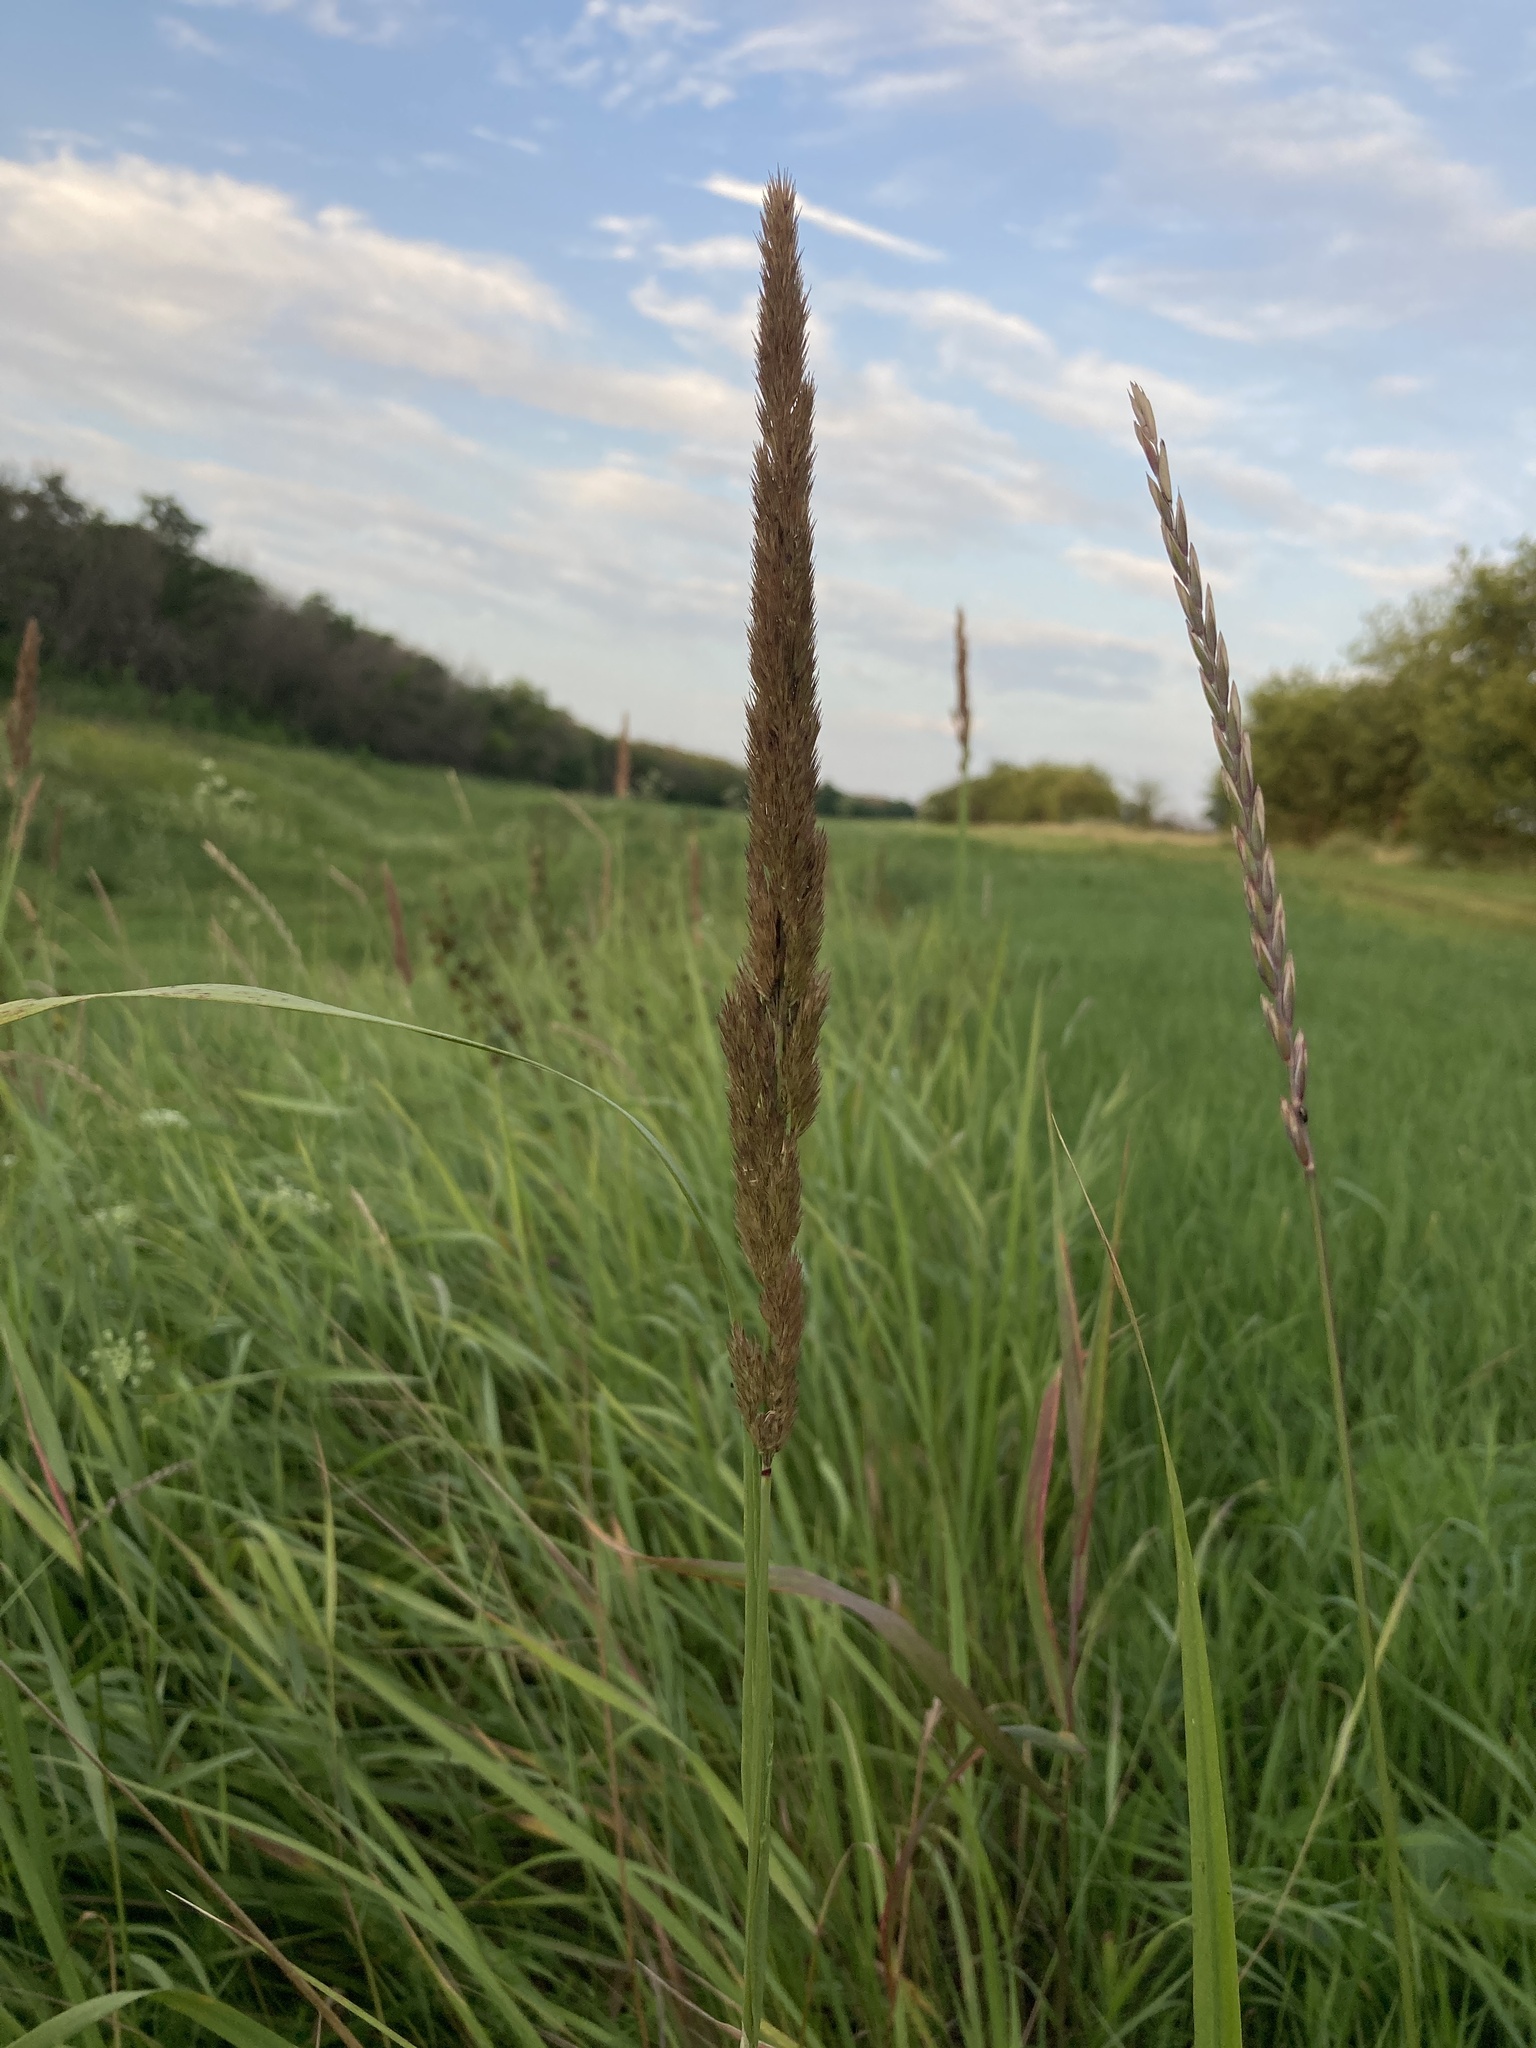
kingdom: Plantae
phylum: Tracheophyta
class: Liliopsida
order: Poales
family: Poaceae
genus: Calamagrostis
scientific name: Calamagrostis epigejos
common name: Wood small-reed
